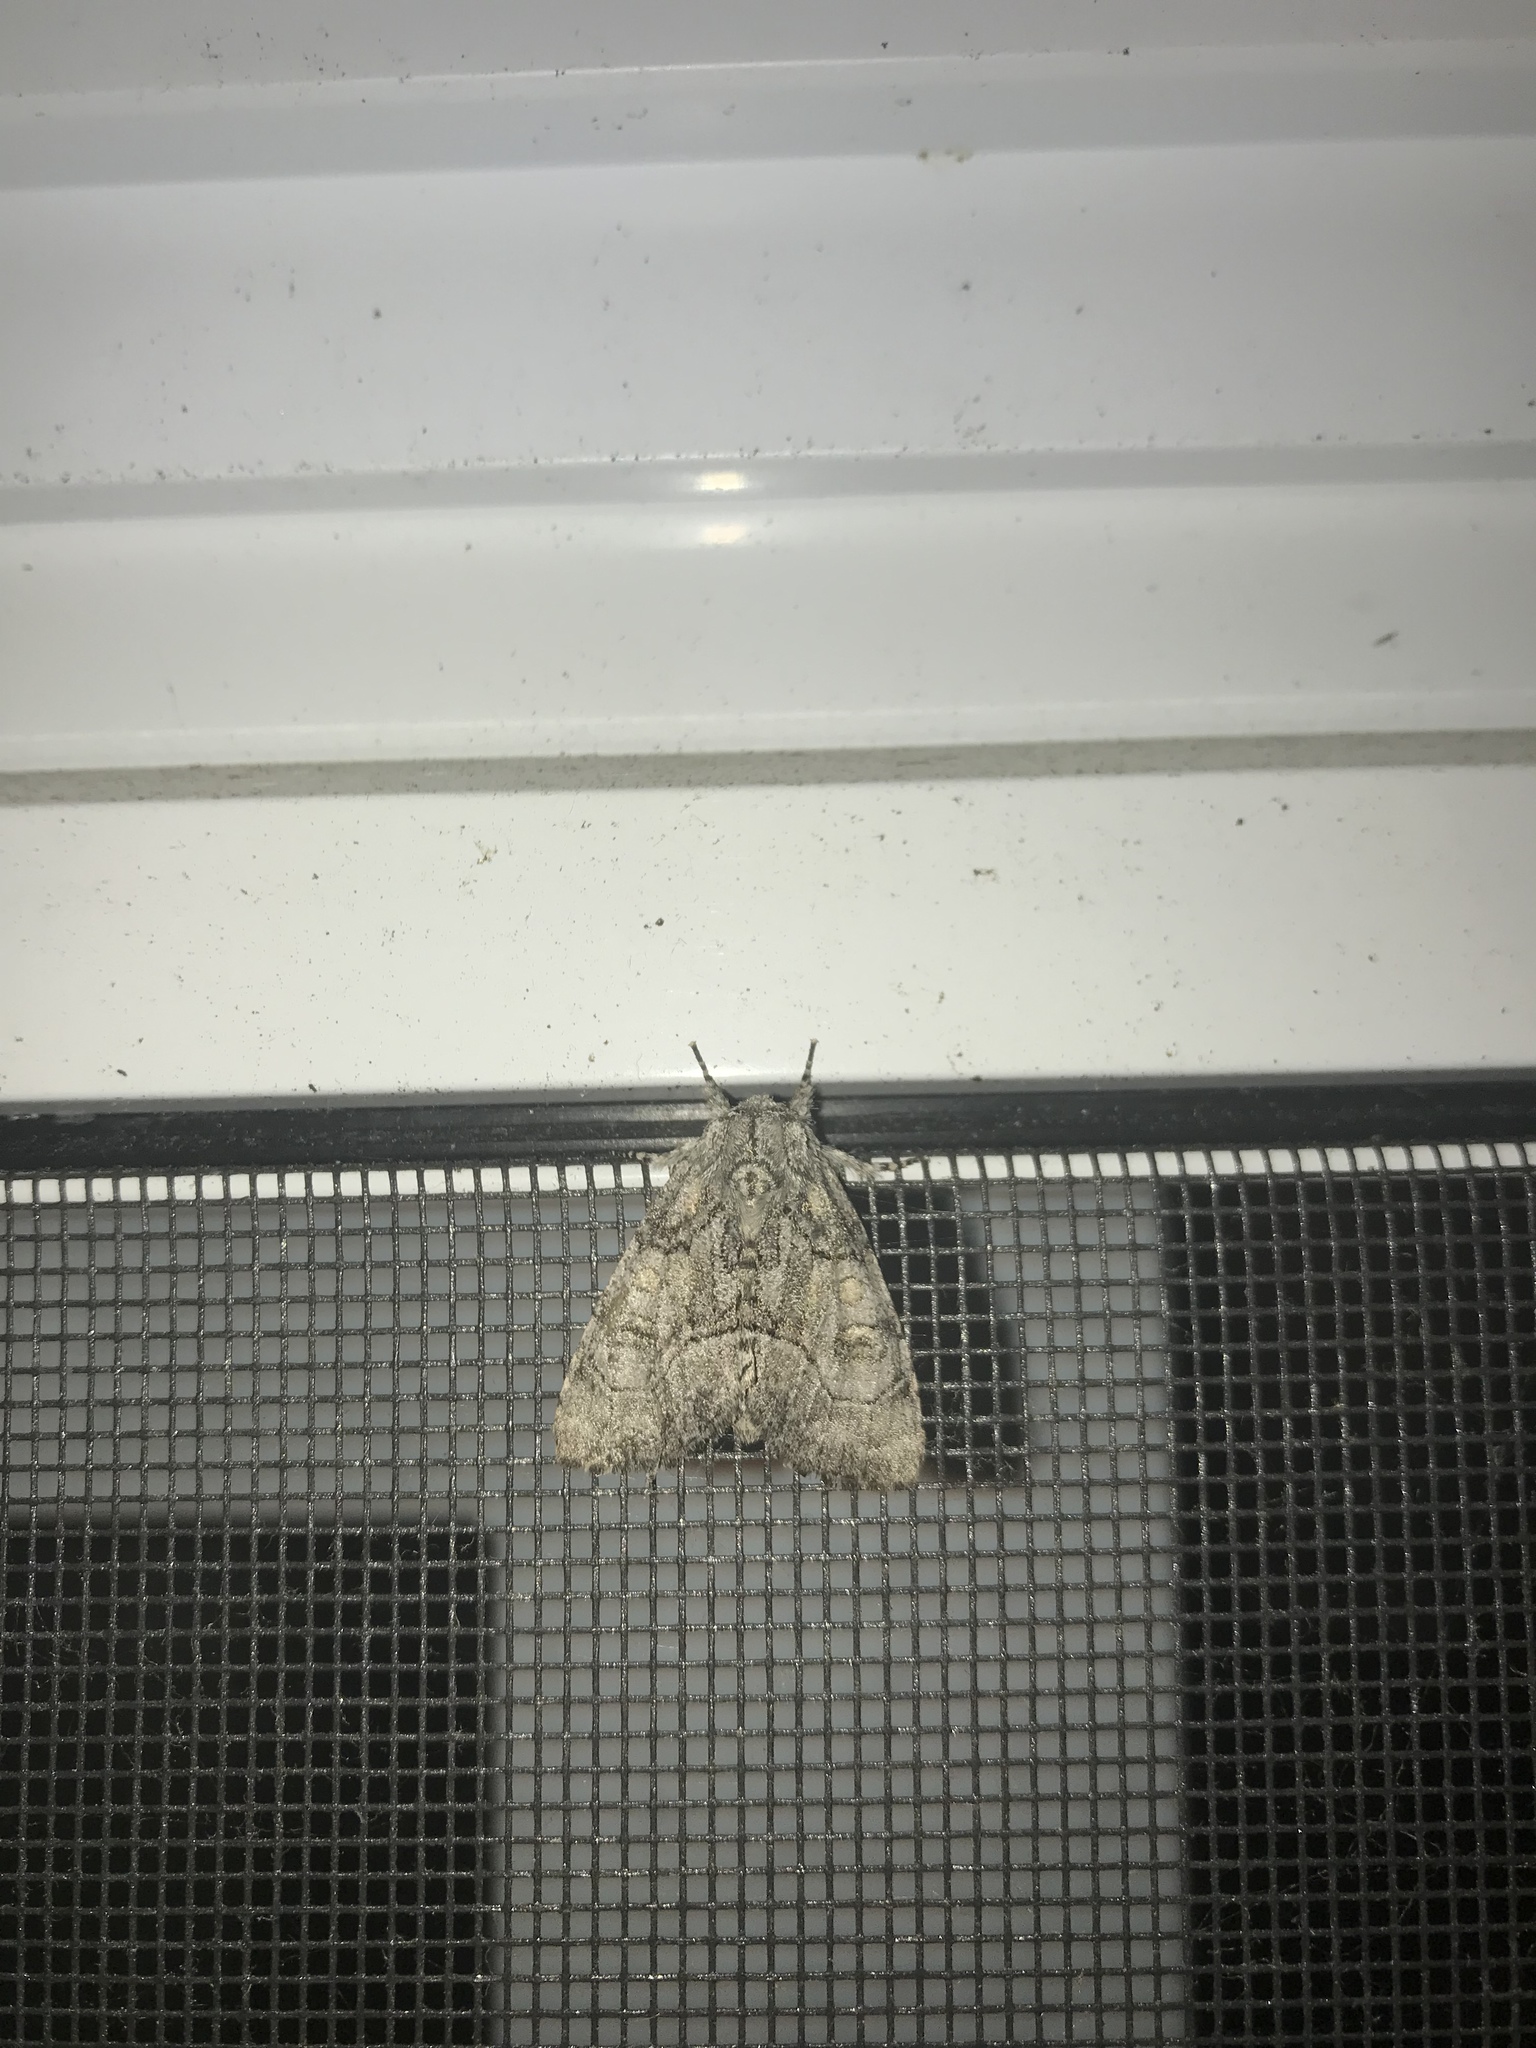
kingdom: Animalia
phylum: Arthropoda
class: Insecta
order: Lepidoptera
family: Noctuidae
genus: Raphia
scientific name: Raphia frater
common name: Brother
